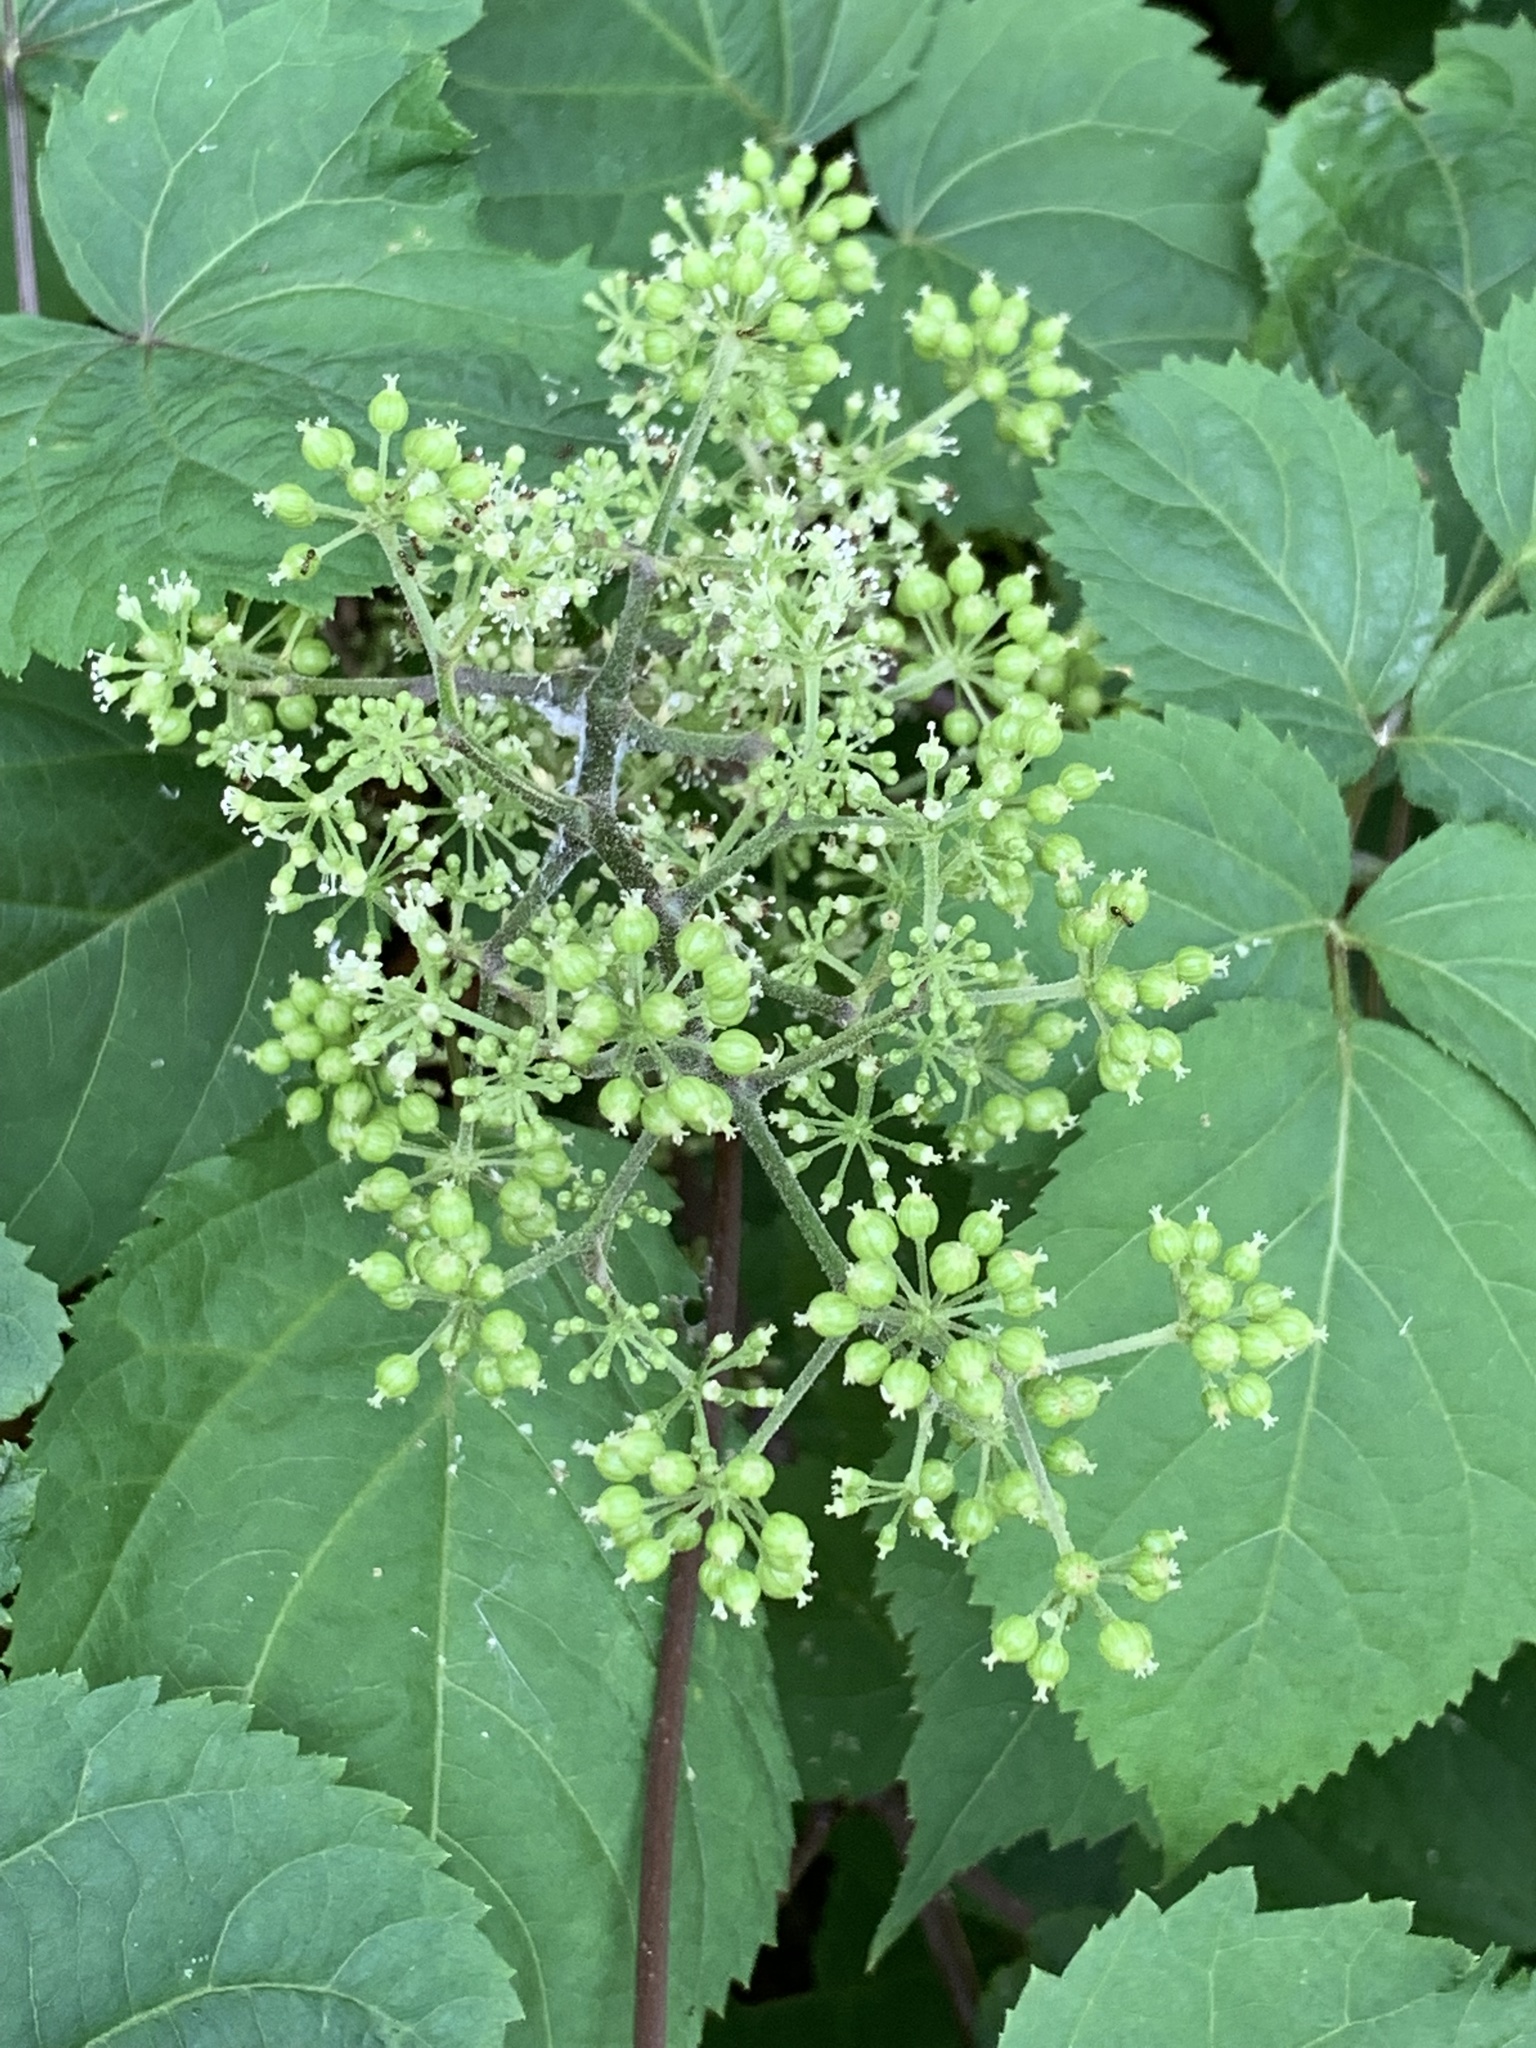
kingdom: Plantae
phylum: Tracheophyta
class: Magnoliopsida
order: Apiales
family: Araliaceae
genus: Aralia
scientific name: Aralia racemosa
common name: American-spikenard
